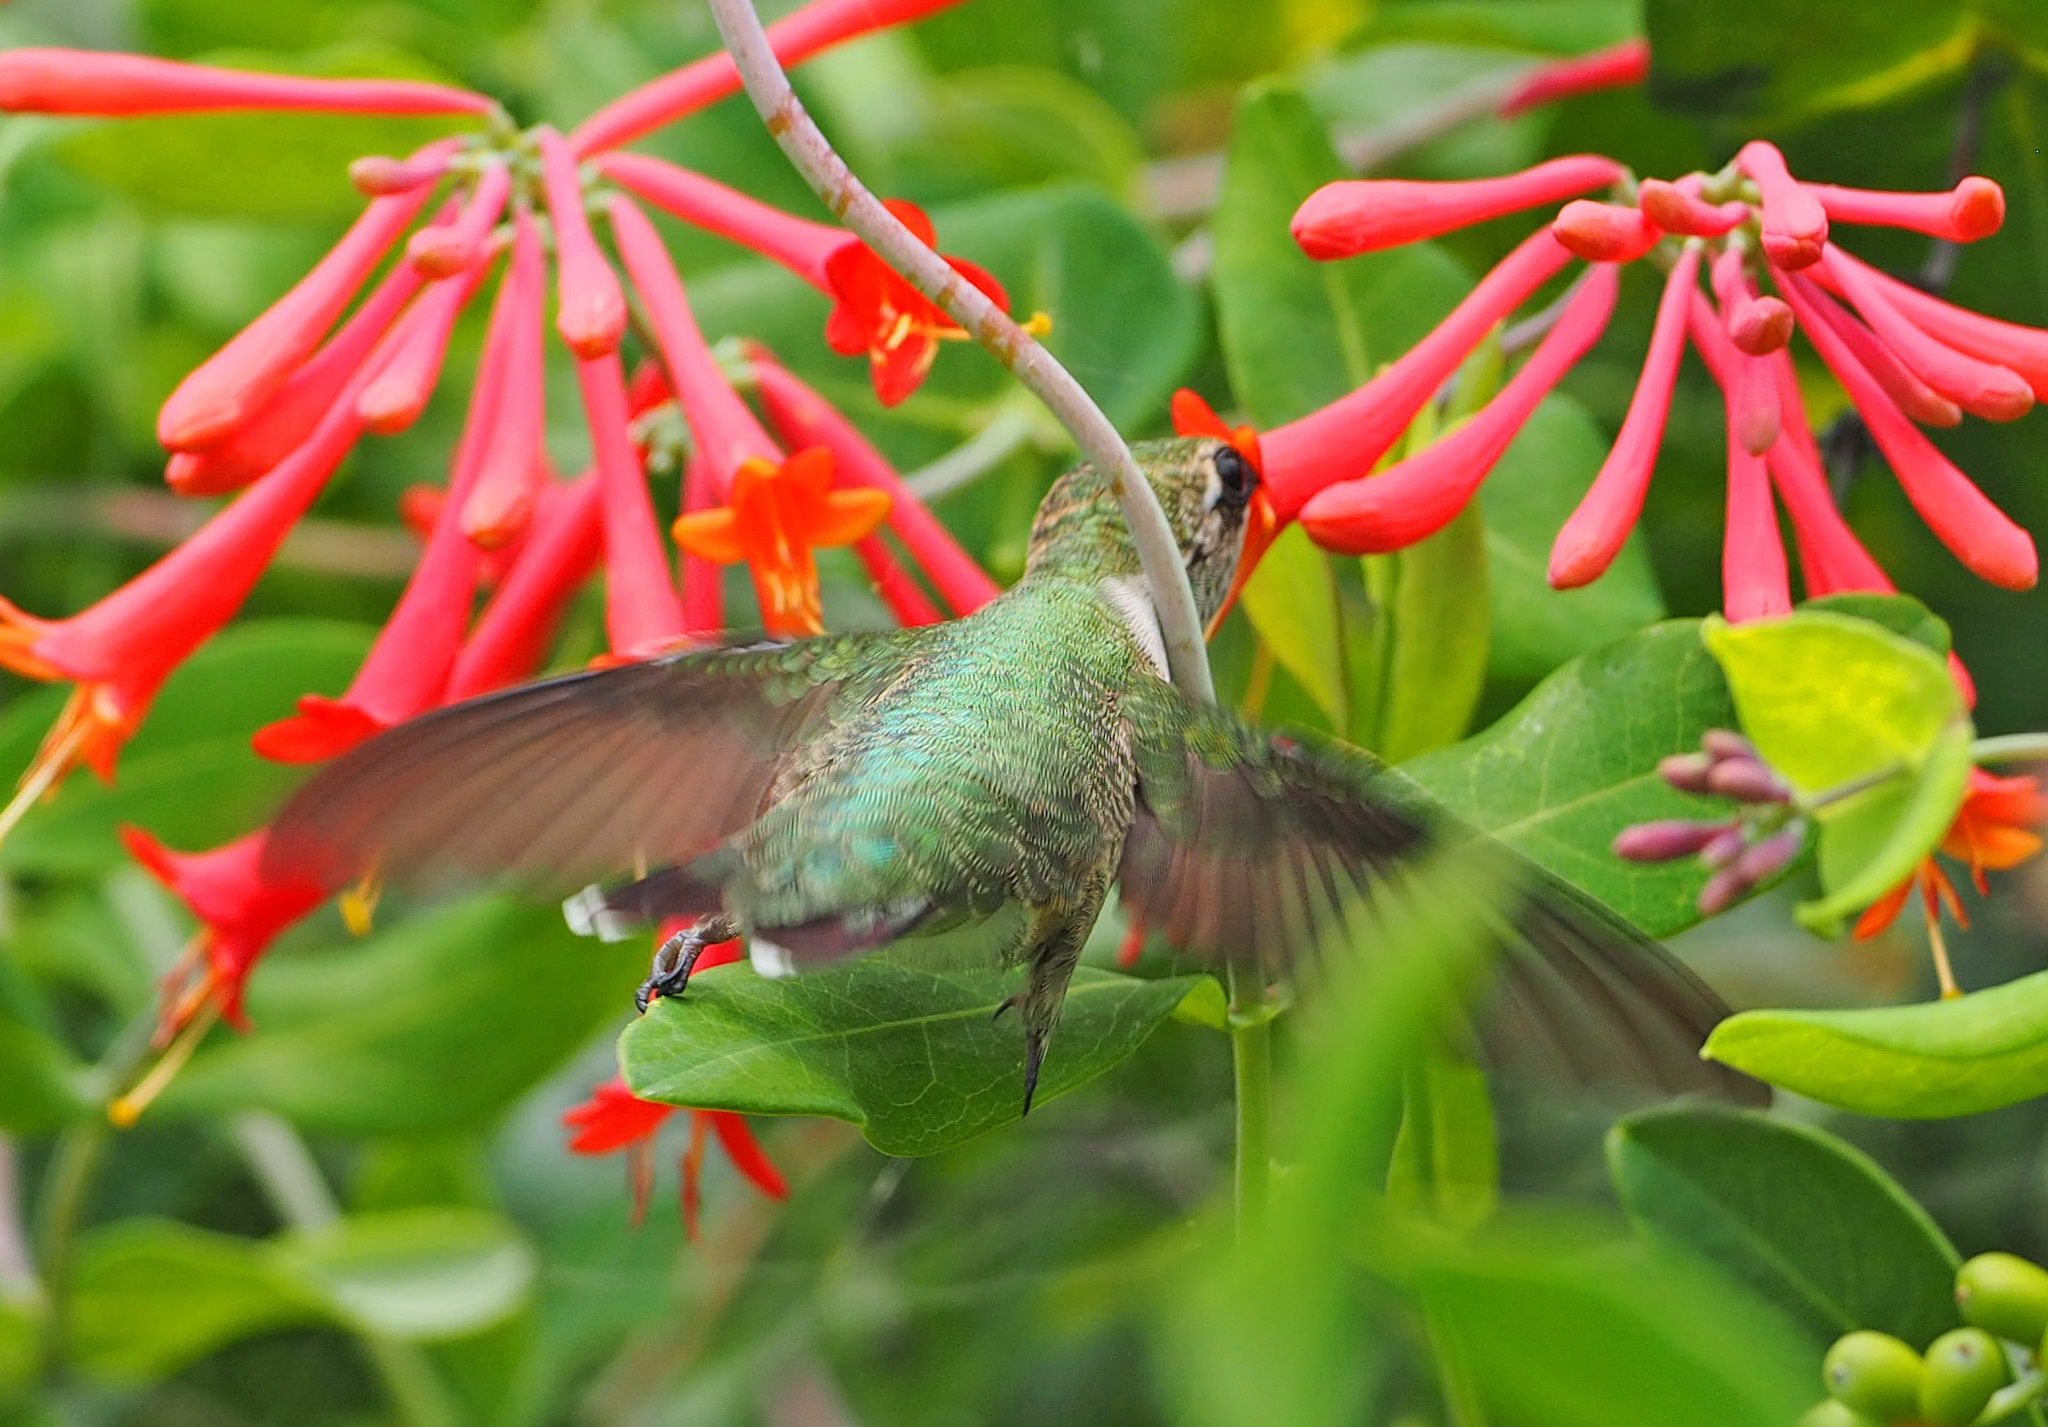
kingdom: Animalia
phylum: Chordata
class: Aves
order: Apodiformes
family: Trochilidae
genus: Archilochus
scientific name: Archilochus colubris
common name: Ruby-throated hummingbird
